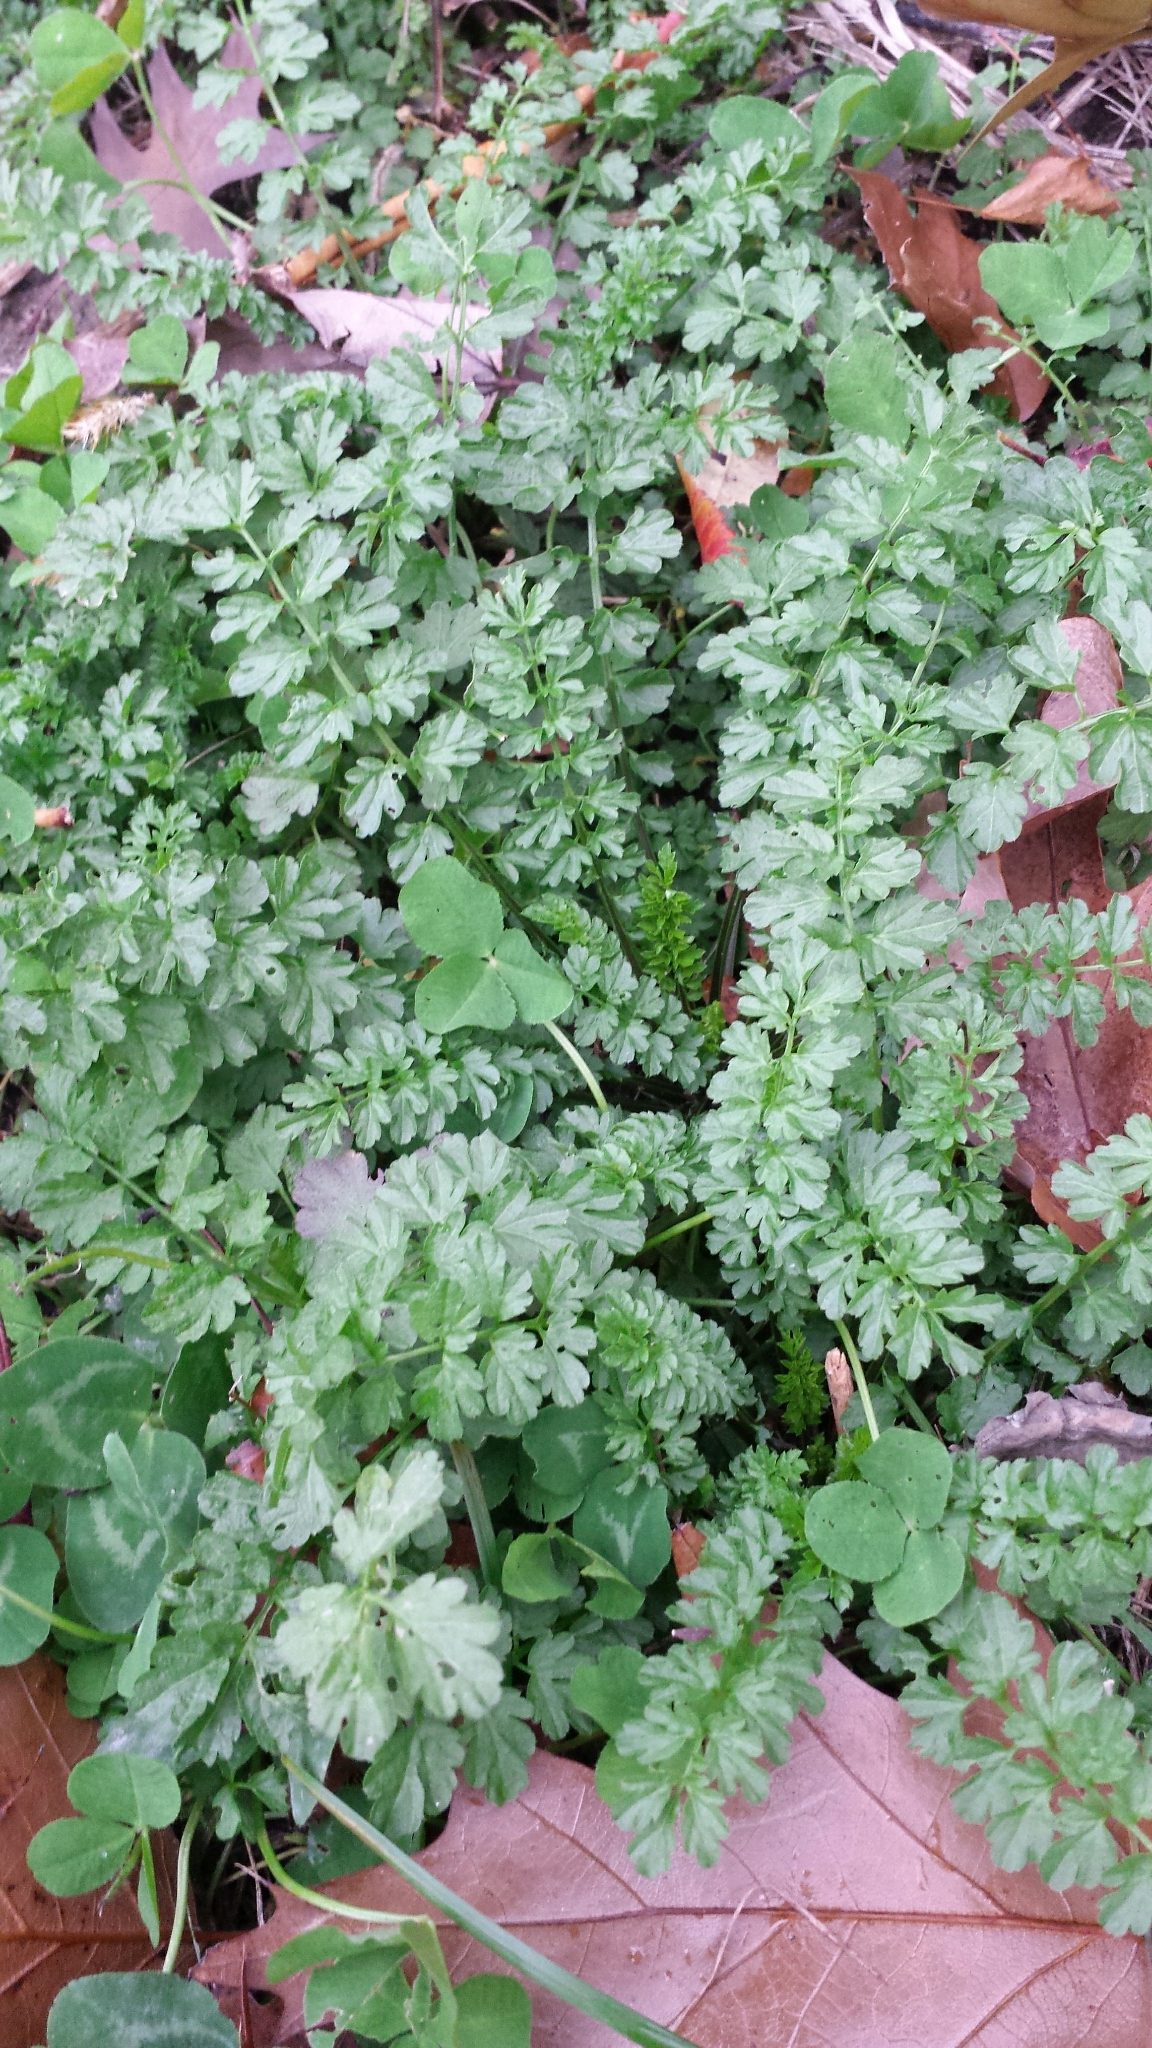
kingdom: Plantae
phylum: Tracheophyta
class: Magnoliopsida
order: Brassicales
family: Brassicaceae
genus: Cardamine
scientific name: Cardamine impatiens
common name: Narrow-leaved bitter-cress
